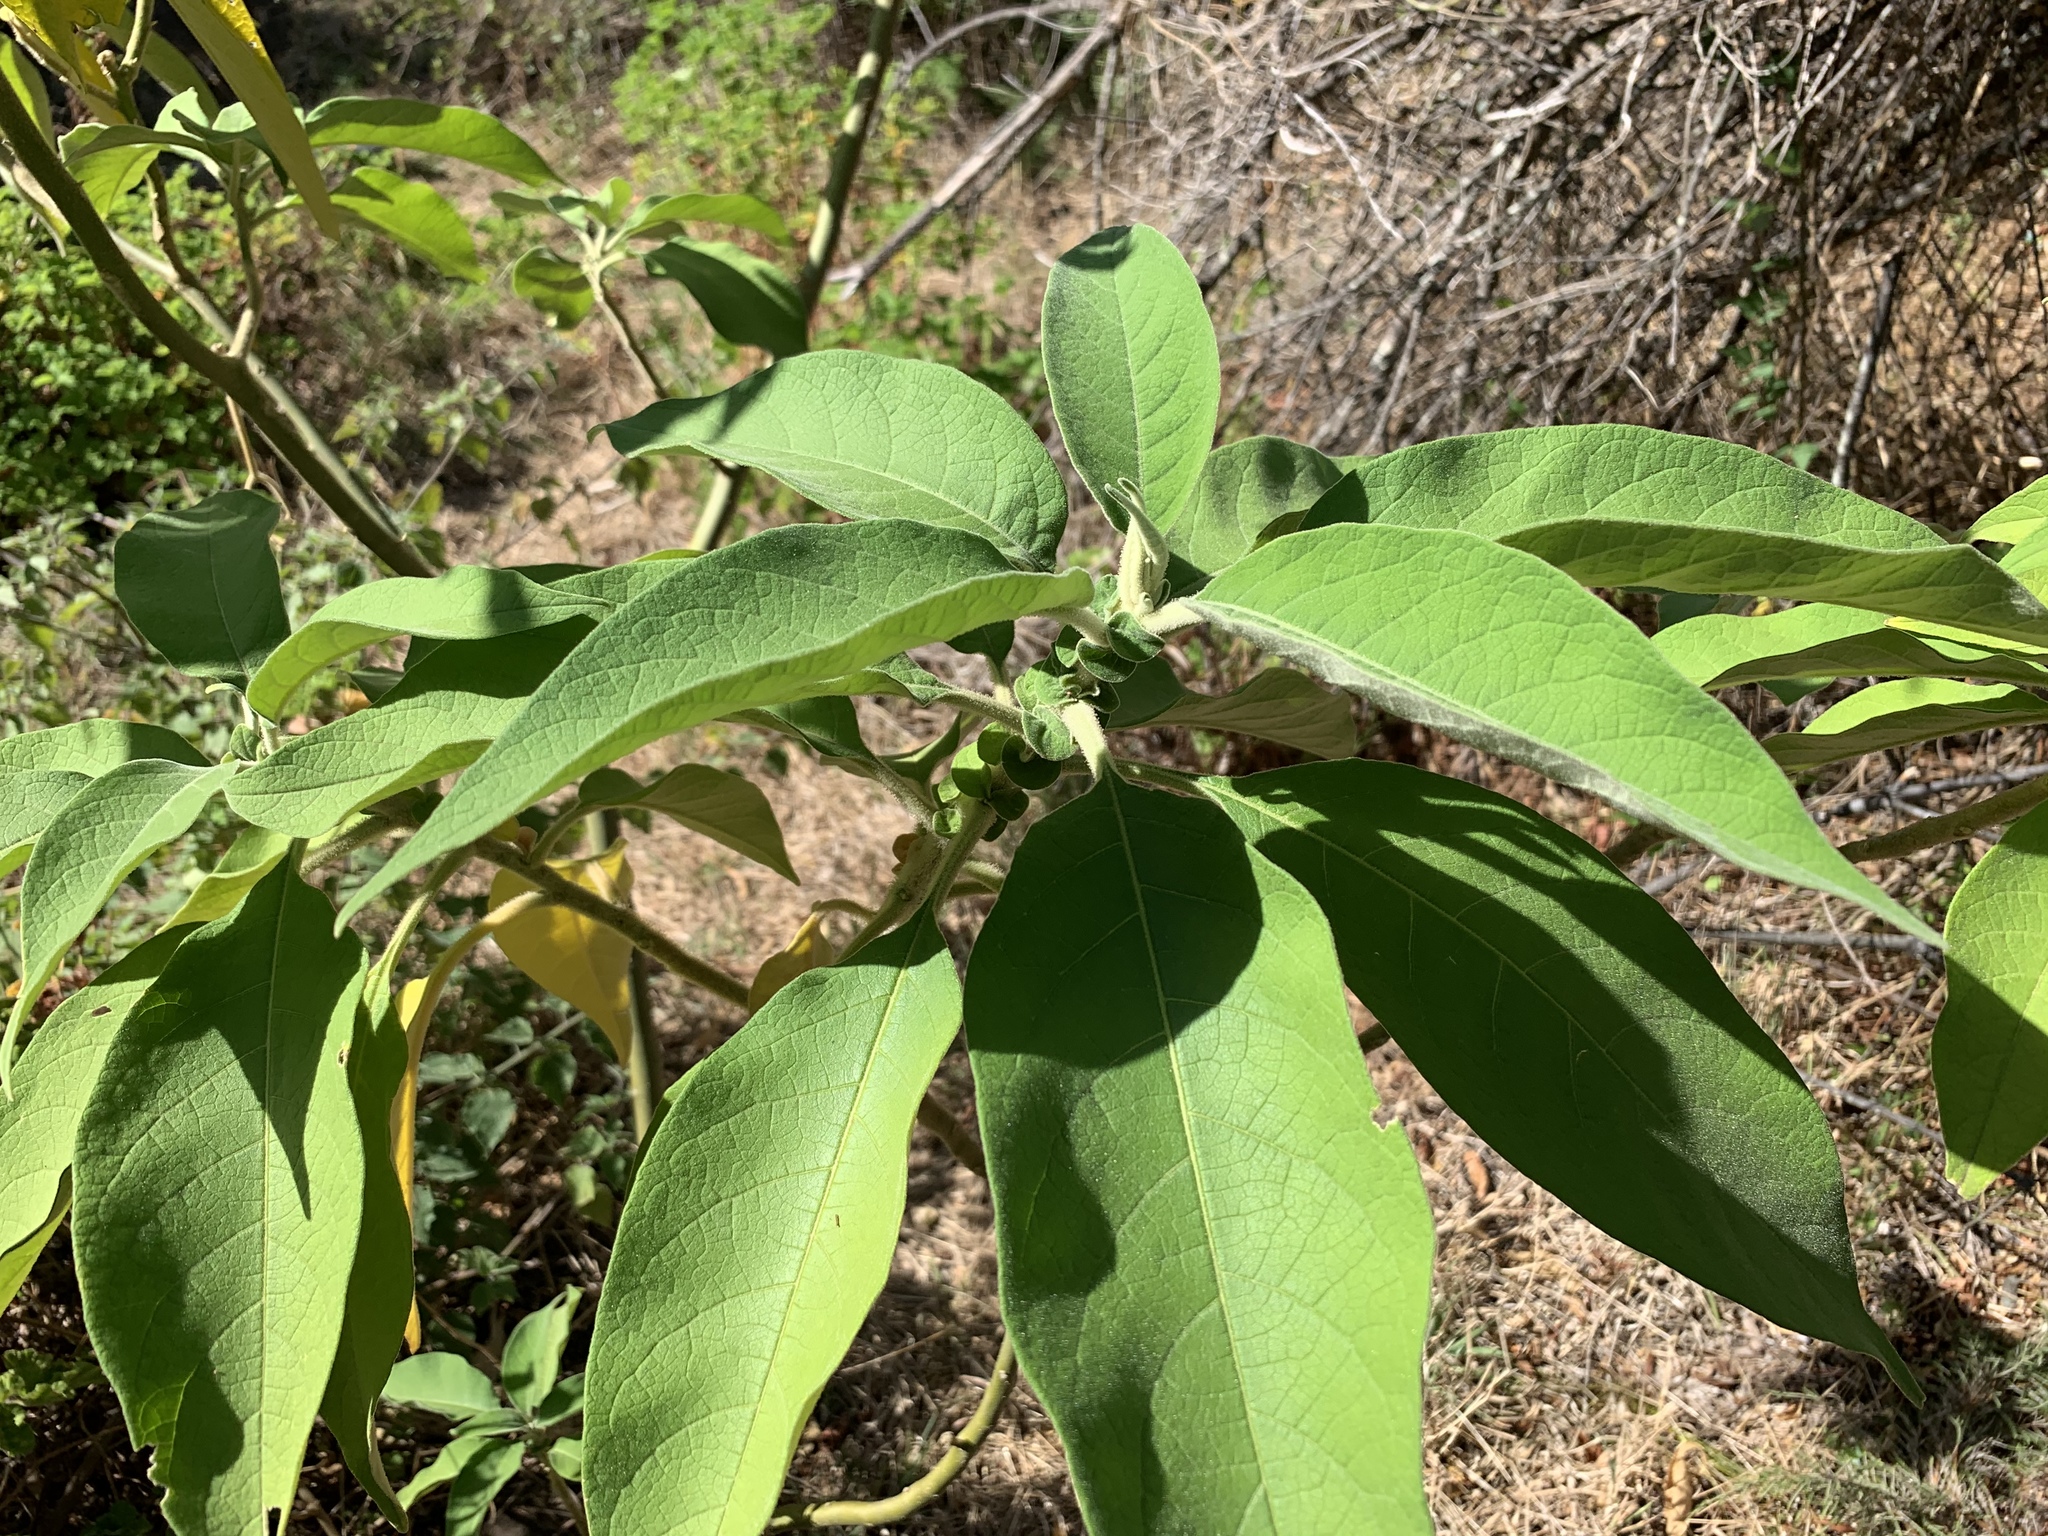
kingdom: Plantae
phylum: Tracheophyta
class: Magnoliopsida
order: Solanales
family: Solanaceae
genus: Solanum
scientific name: Solanum mauritianum
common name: Earleaf nightshade
